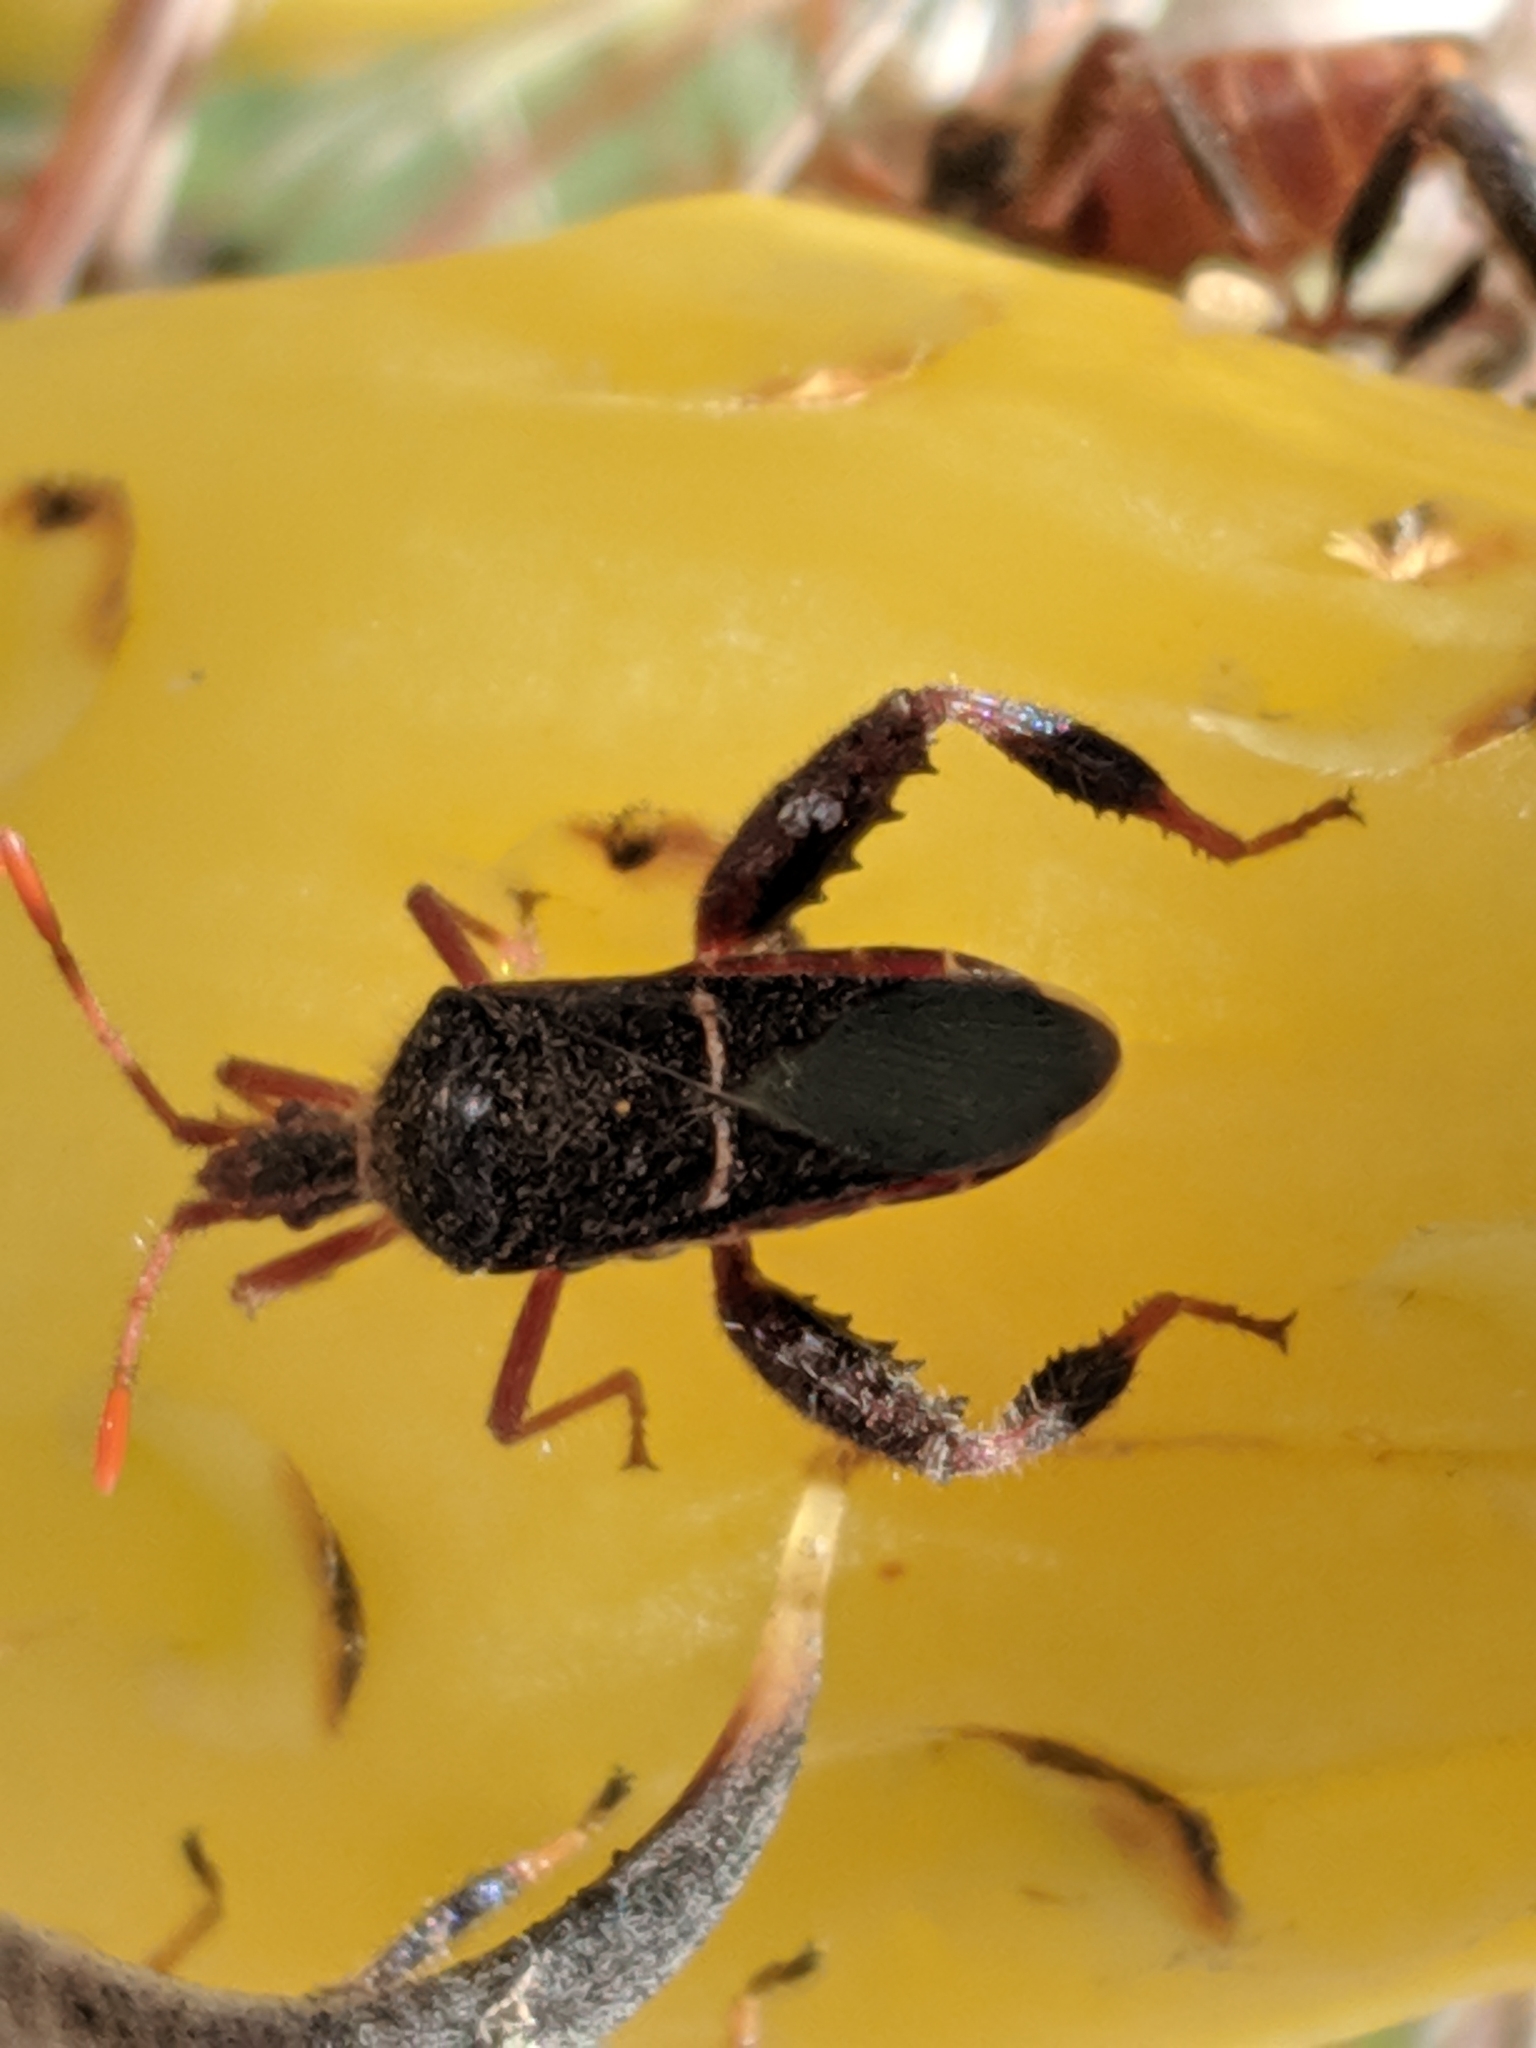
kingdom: Animalia
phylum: Arthropoda
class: Insecta
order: Hemiptera
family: Coreidae
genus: Narnia
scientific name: Narnia wilsoni
